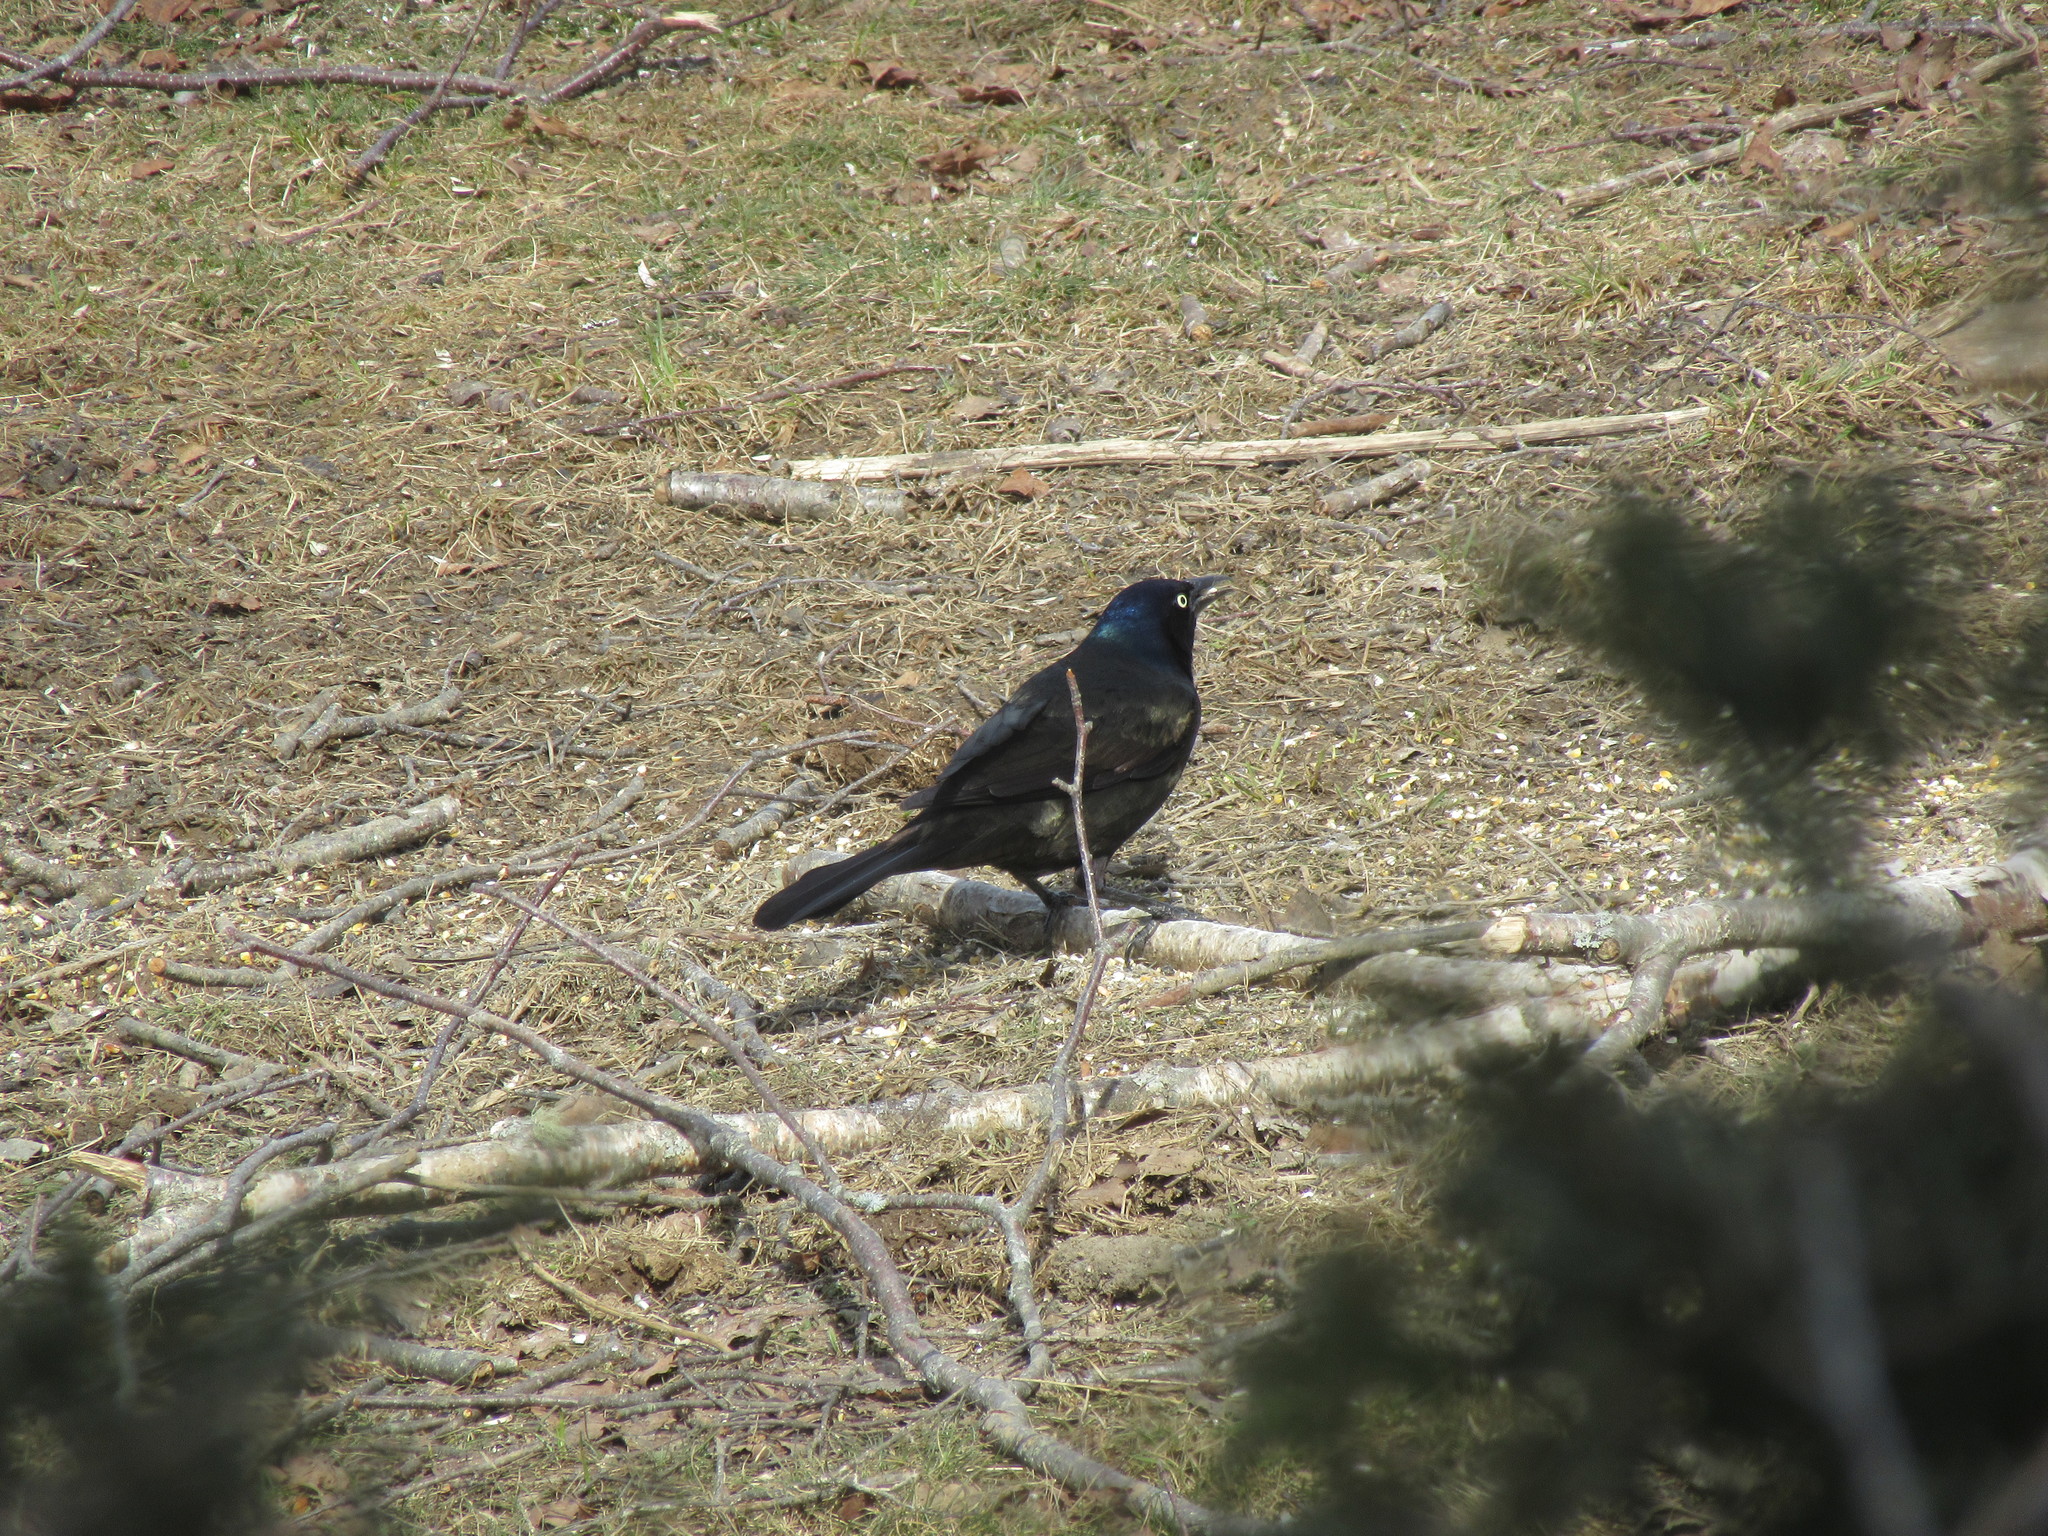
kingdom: Animalia
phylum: Chordata
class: Aves
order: Passeriformes
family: Icteridae
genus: Quiscalus
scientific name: Quiscalus quiscula
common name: Common grackle
